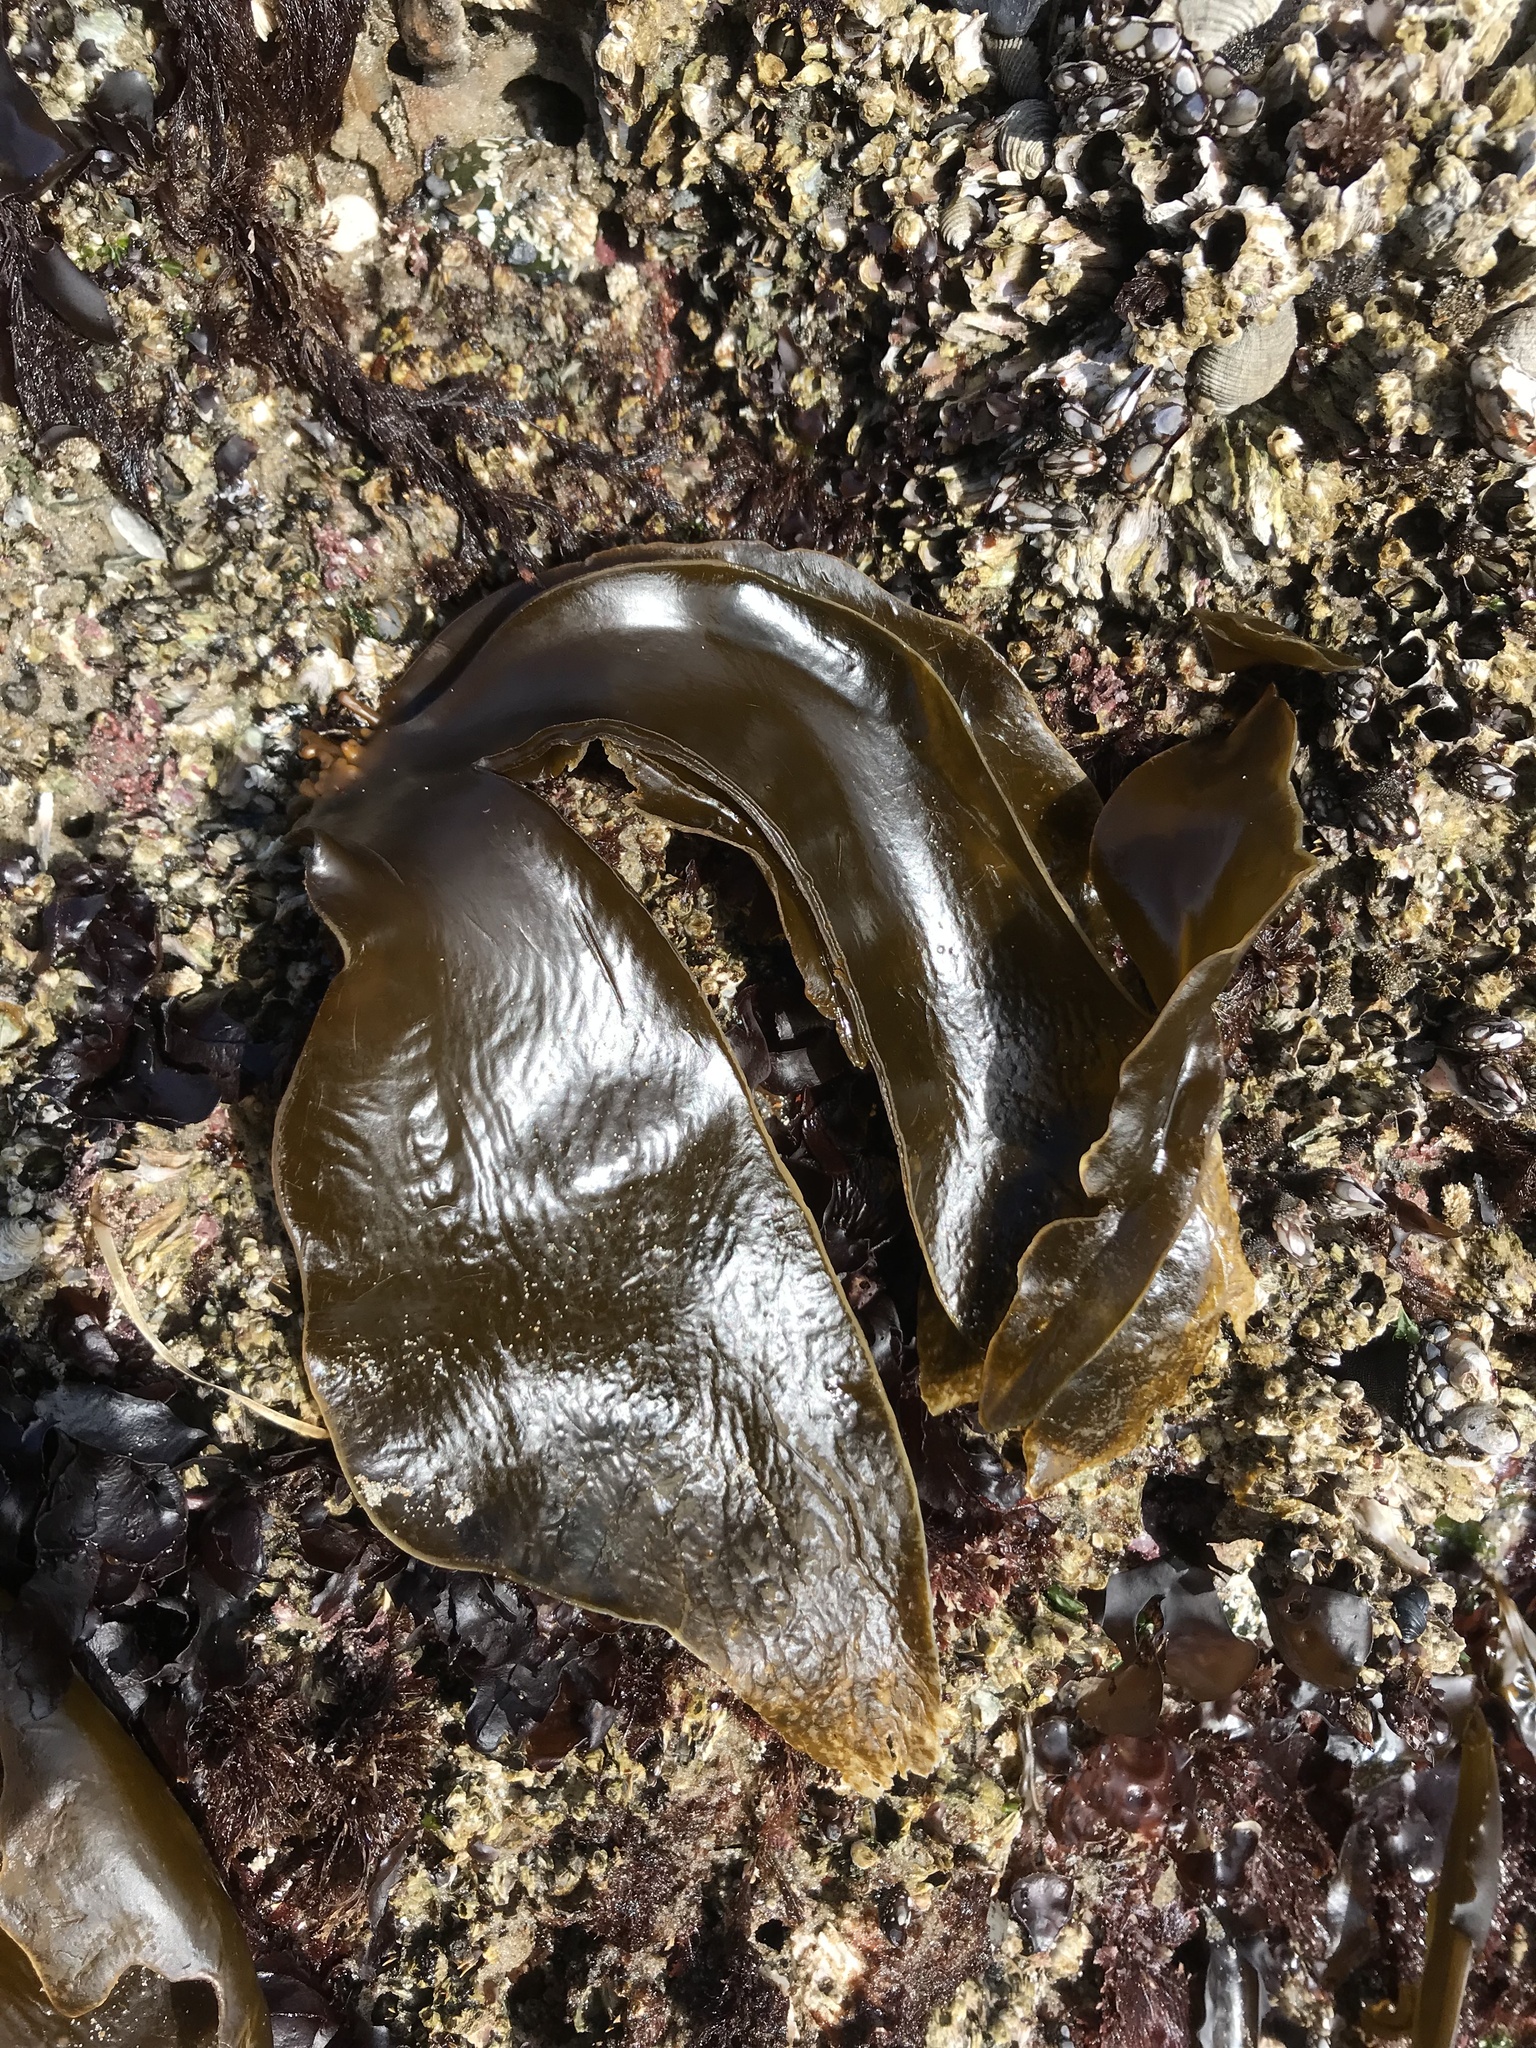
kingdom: Chromista
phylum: Ochrophyta
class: Phaeophyceae
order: Laminariales
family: Laminariaceae
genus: Hedophyllum
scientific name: Hedophyllum sessile
